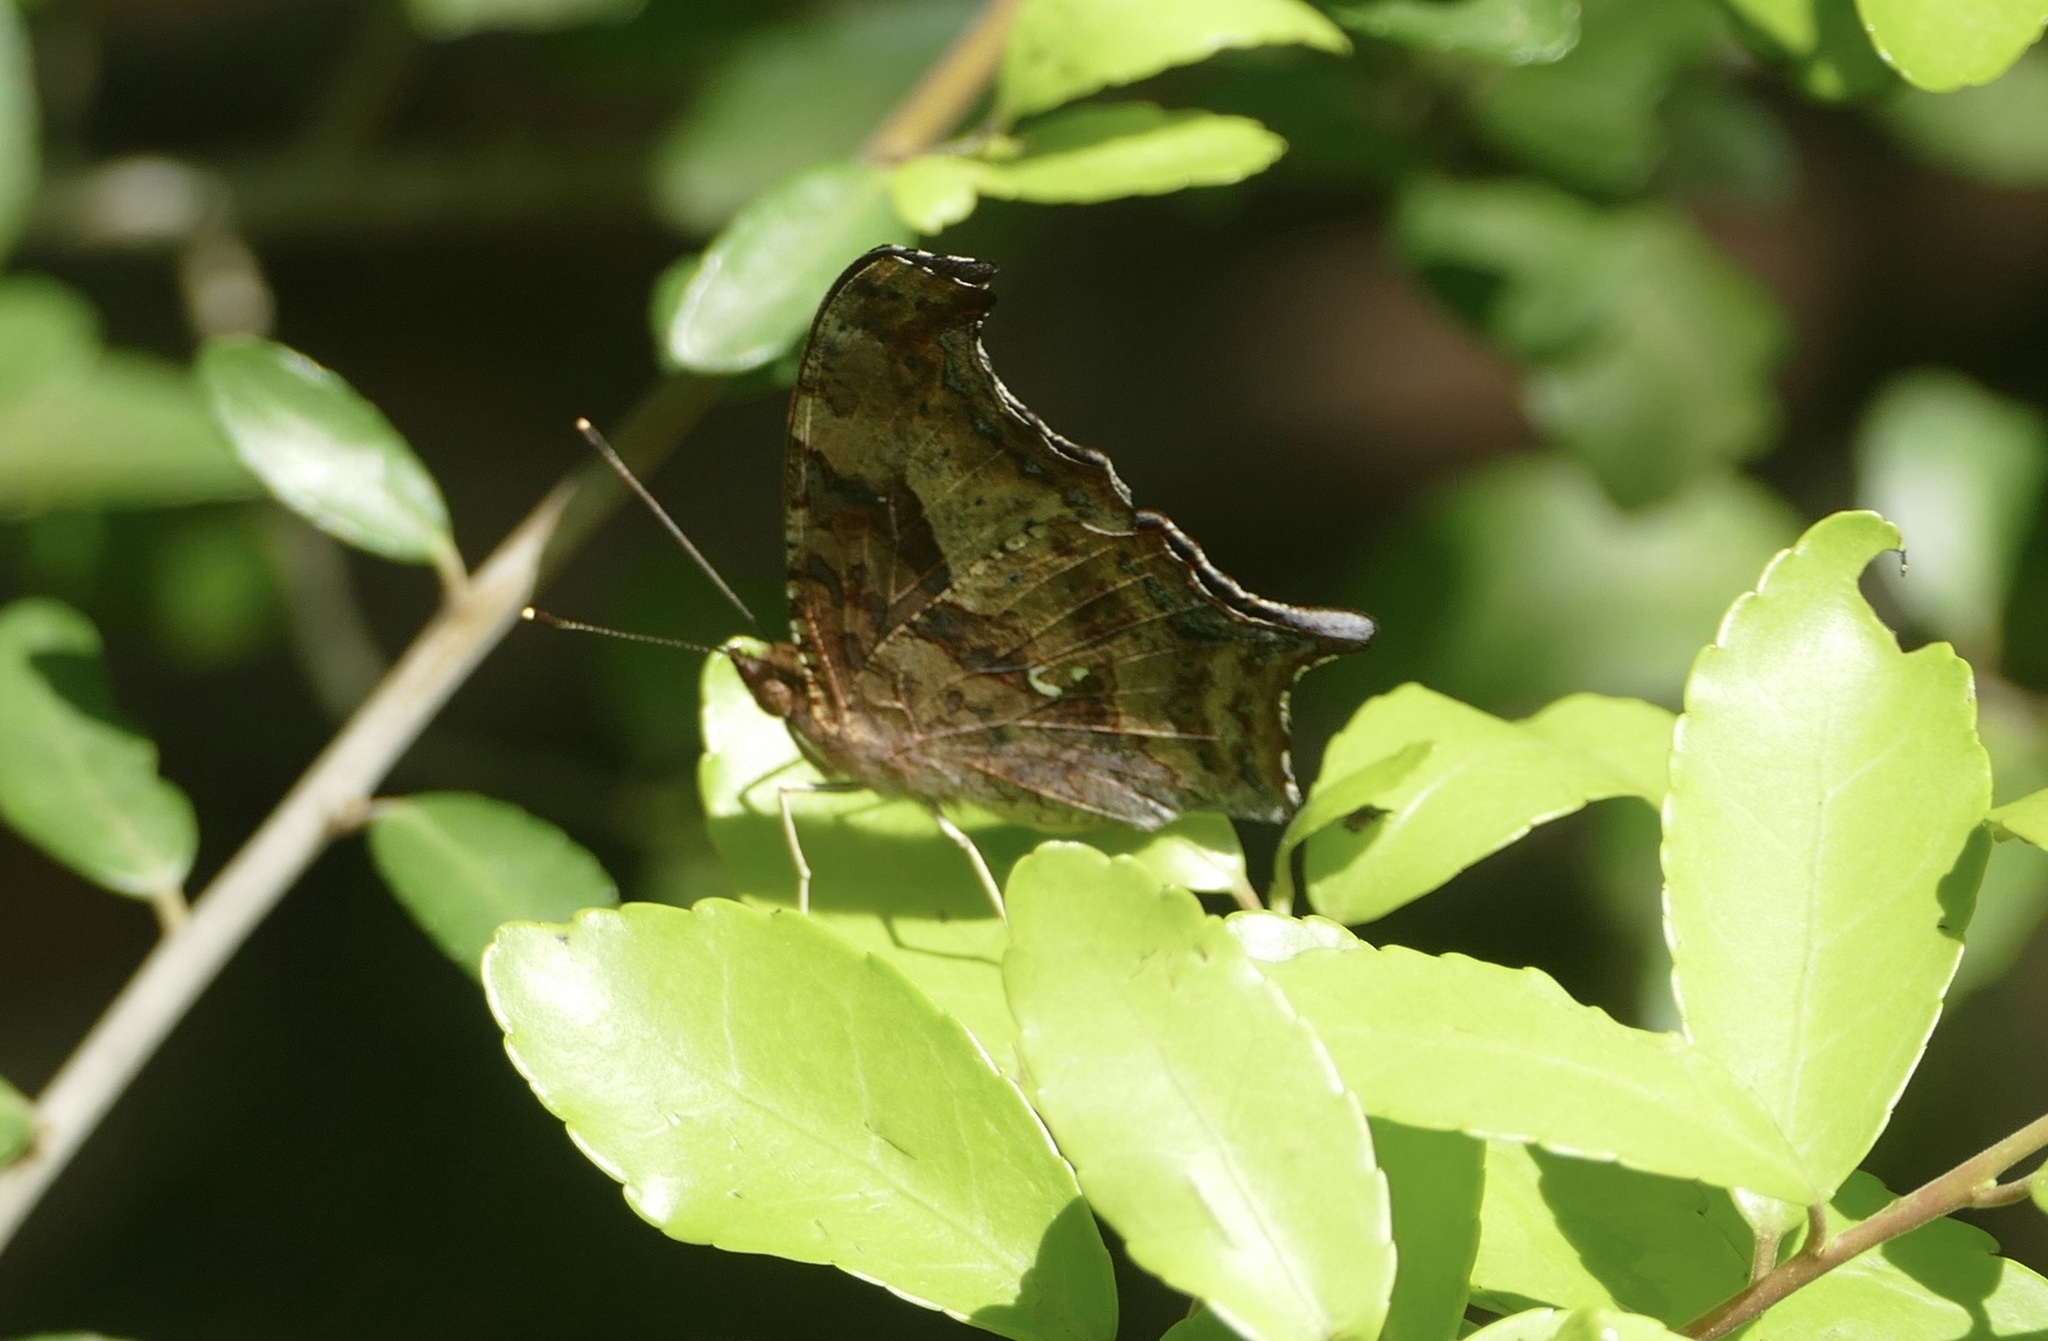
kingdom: Animalia
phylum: Arthropoda
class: Insecta
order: Lepidoptera
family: Nymphalidae
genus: Polygonia
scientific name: Polygonia interrogationis
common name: Question mark
